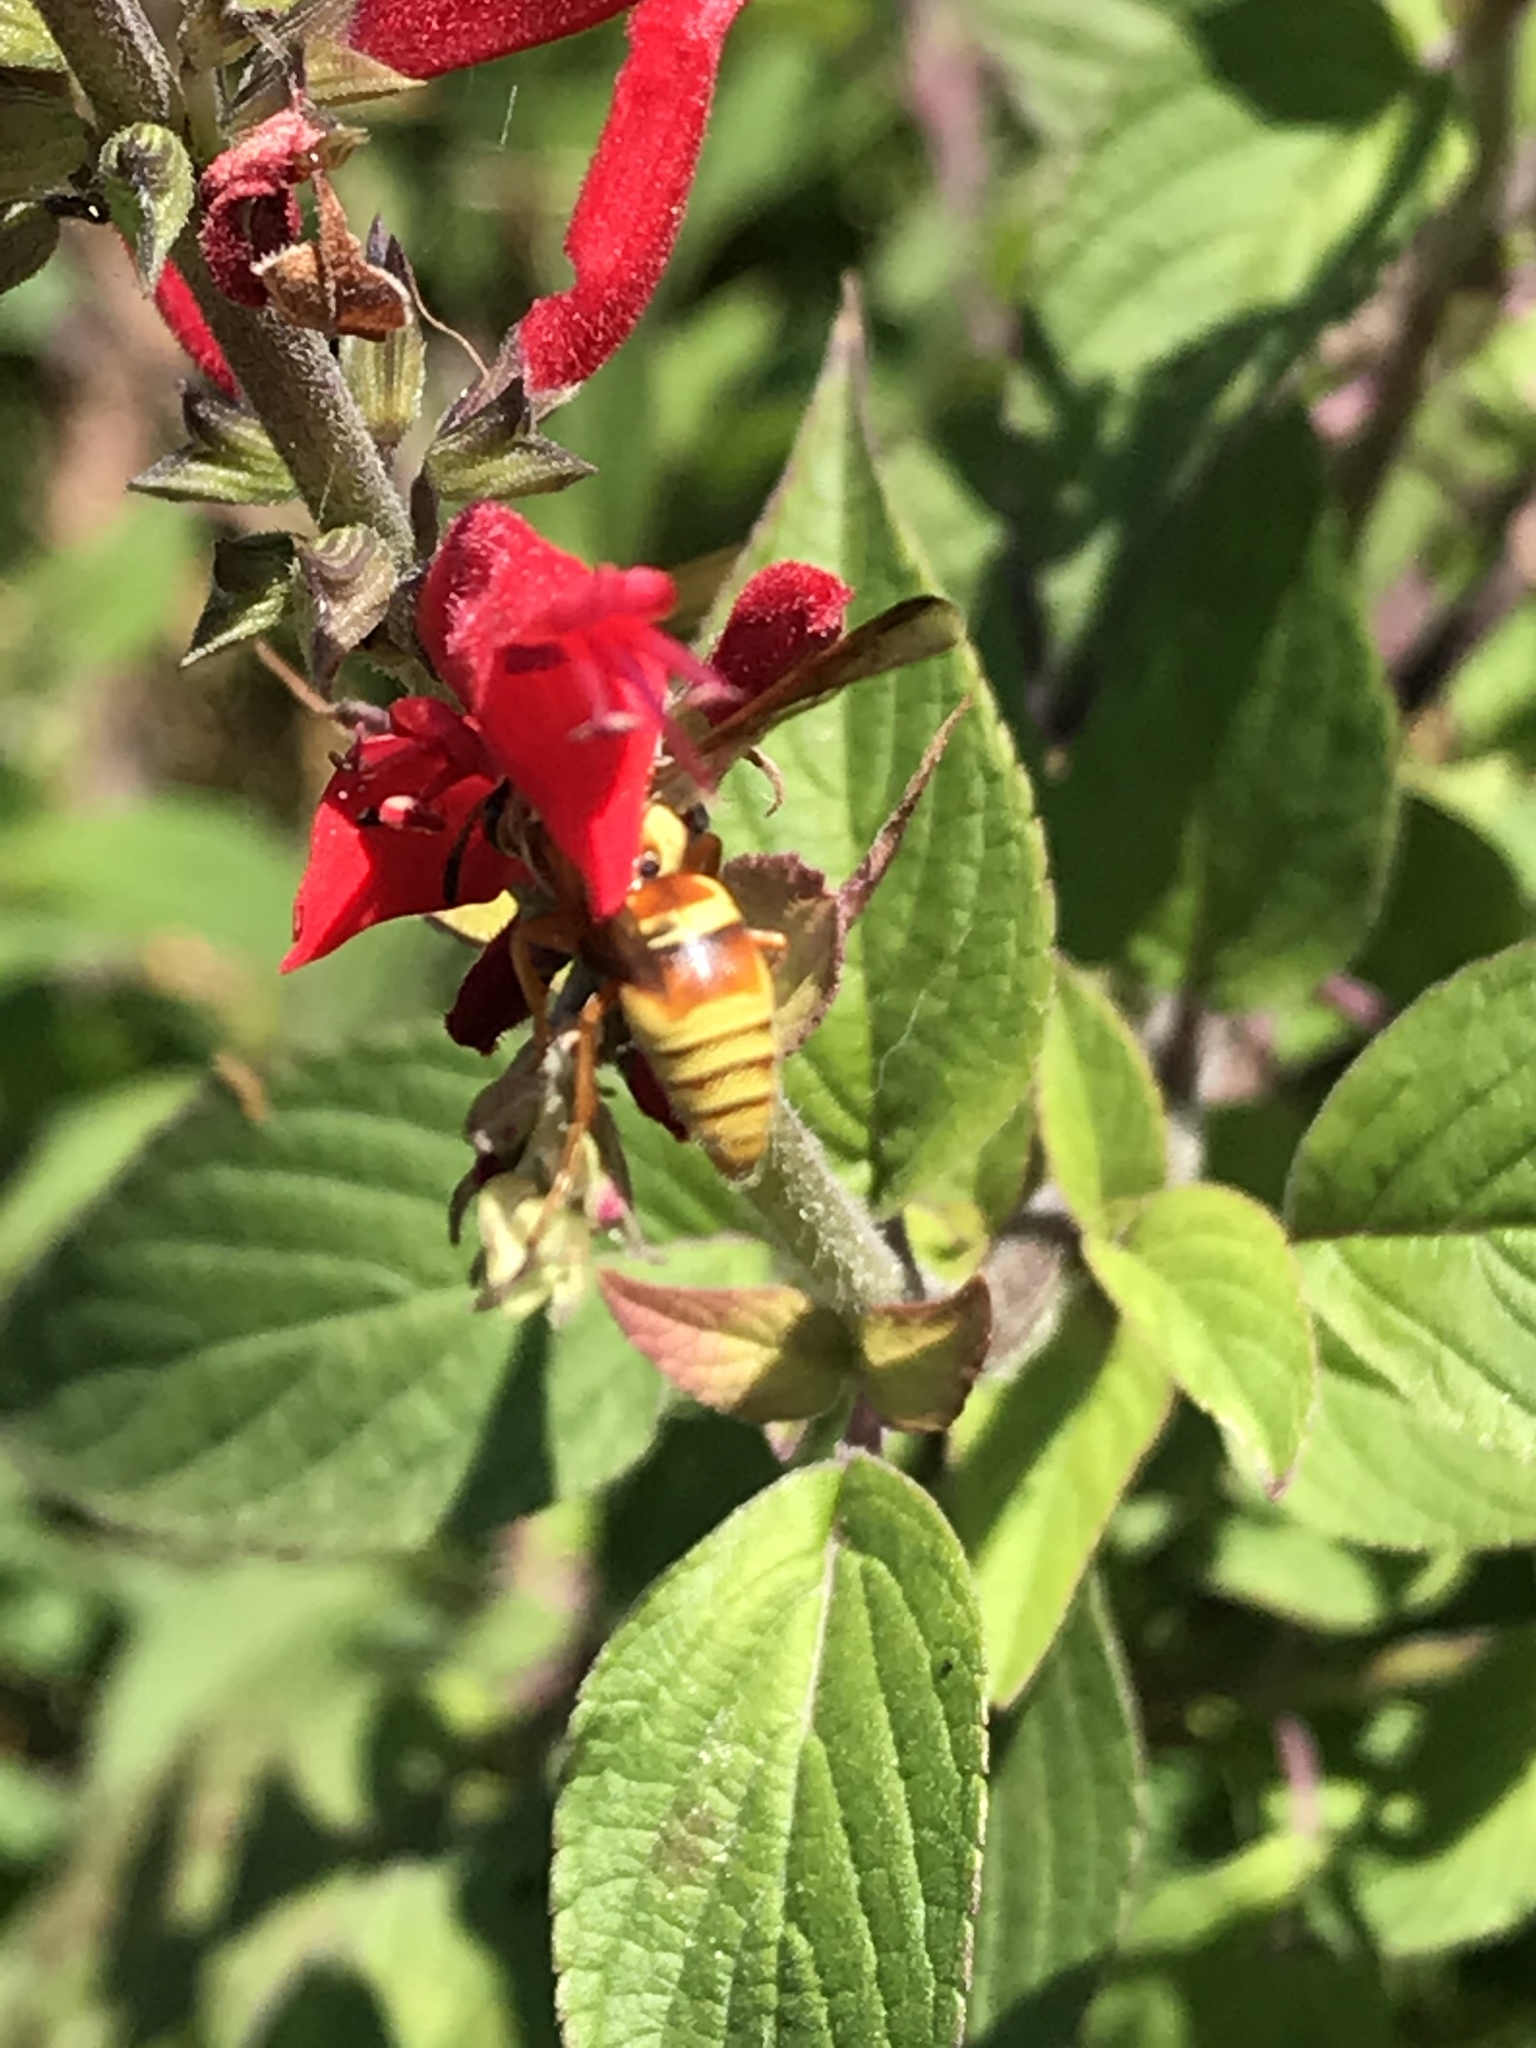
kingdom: Animalia
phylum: Arthropoda
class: Insecta
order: Hymenoptera
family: Eumenidae
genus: Euodynerus
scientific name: Euodynerus pratensis
